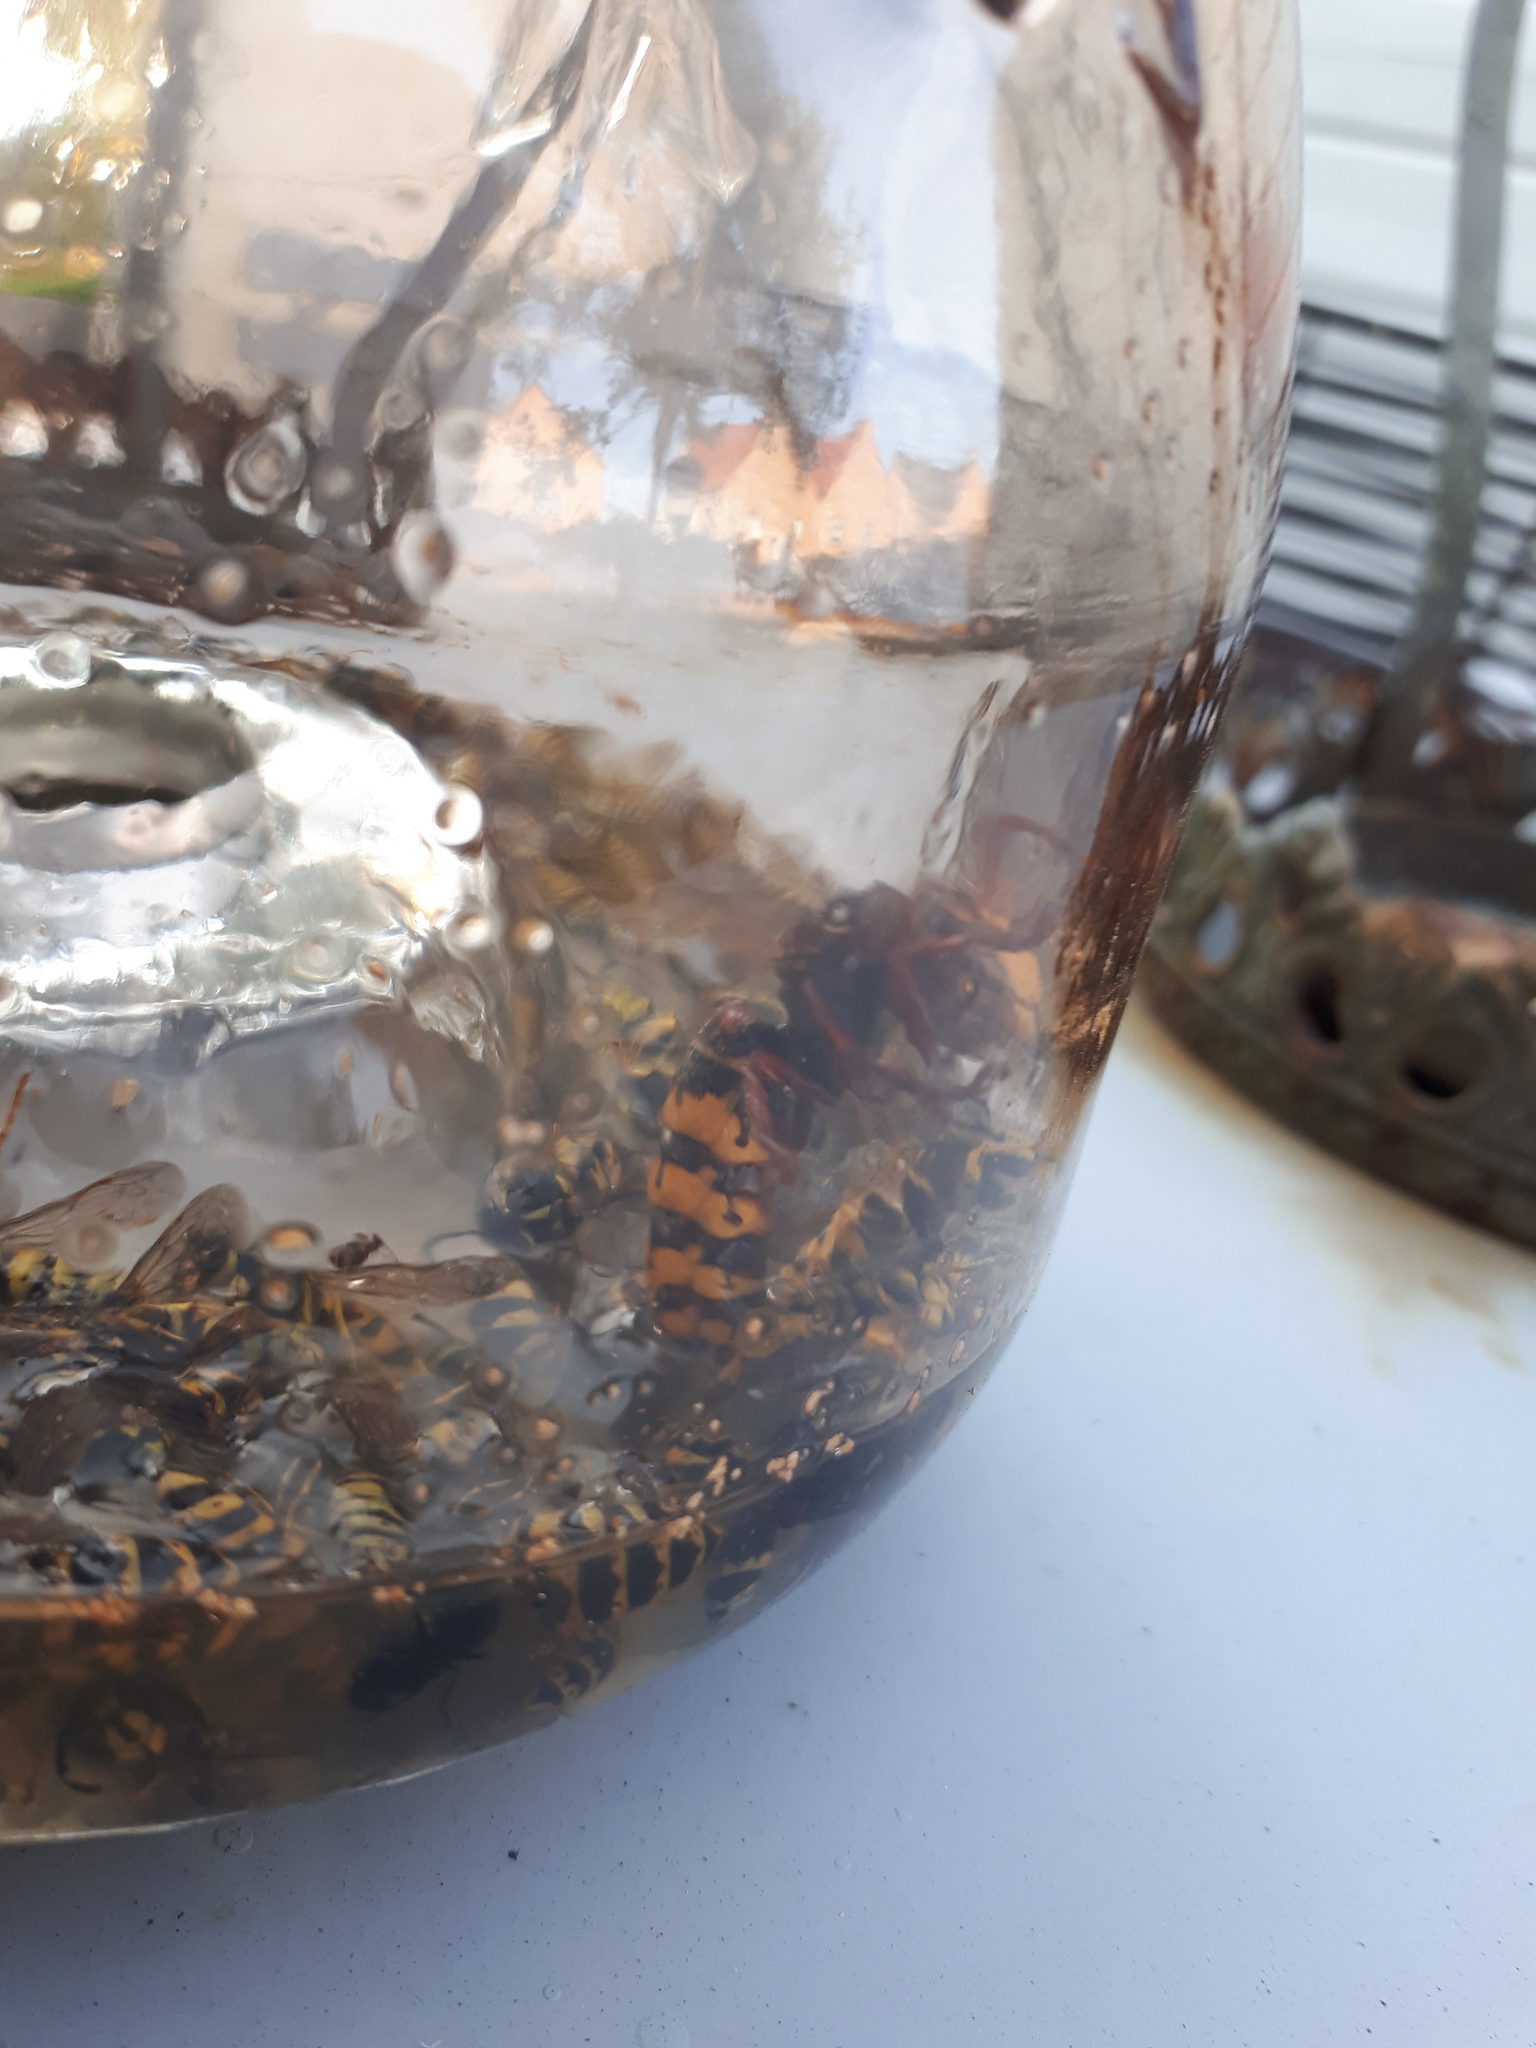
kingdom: Animalia
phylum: Arthropoda
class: Insecta
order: Hymenoptera
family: Vespidae
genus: Vespa
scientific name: Vespa crabro
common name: Hornet
